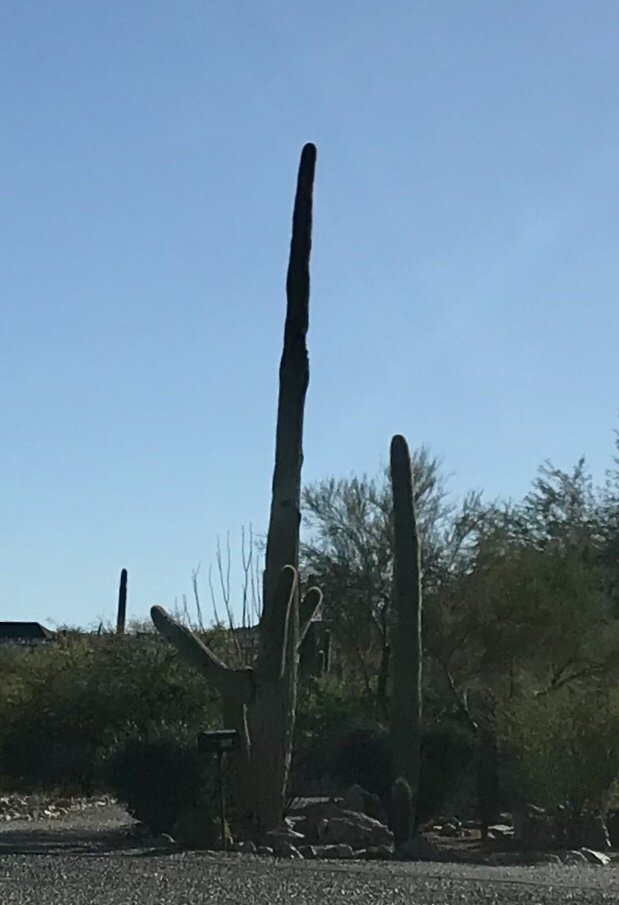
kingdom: Plantae
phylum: Tracheophyta
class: Magnoliopsida
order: Caryophyllales
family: Cactaceae
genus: Carnegiea
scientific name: Carnegiea gigantea
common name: Saguaro
